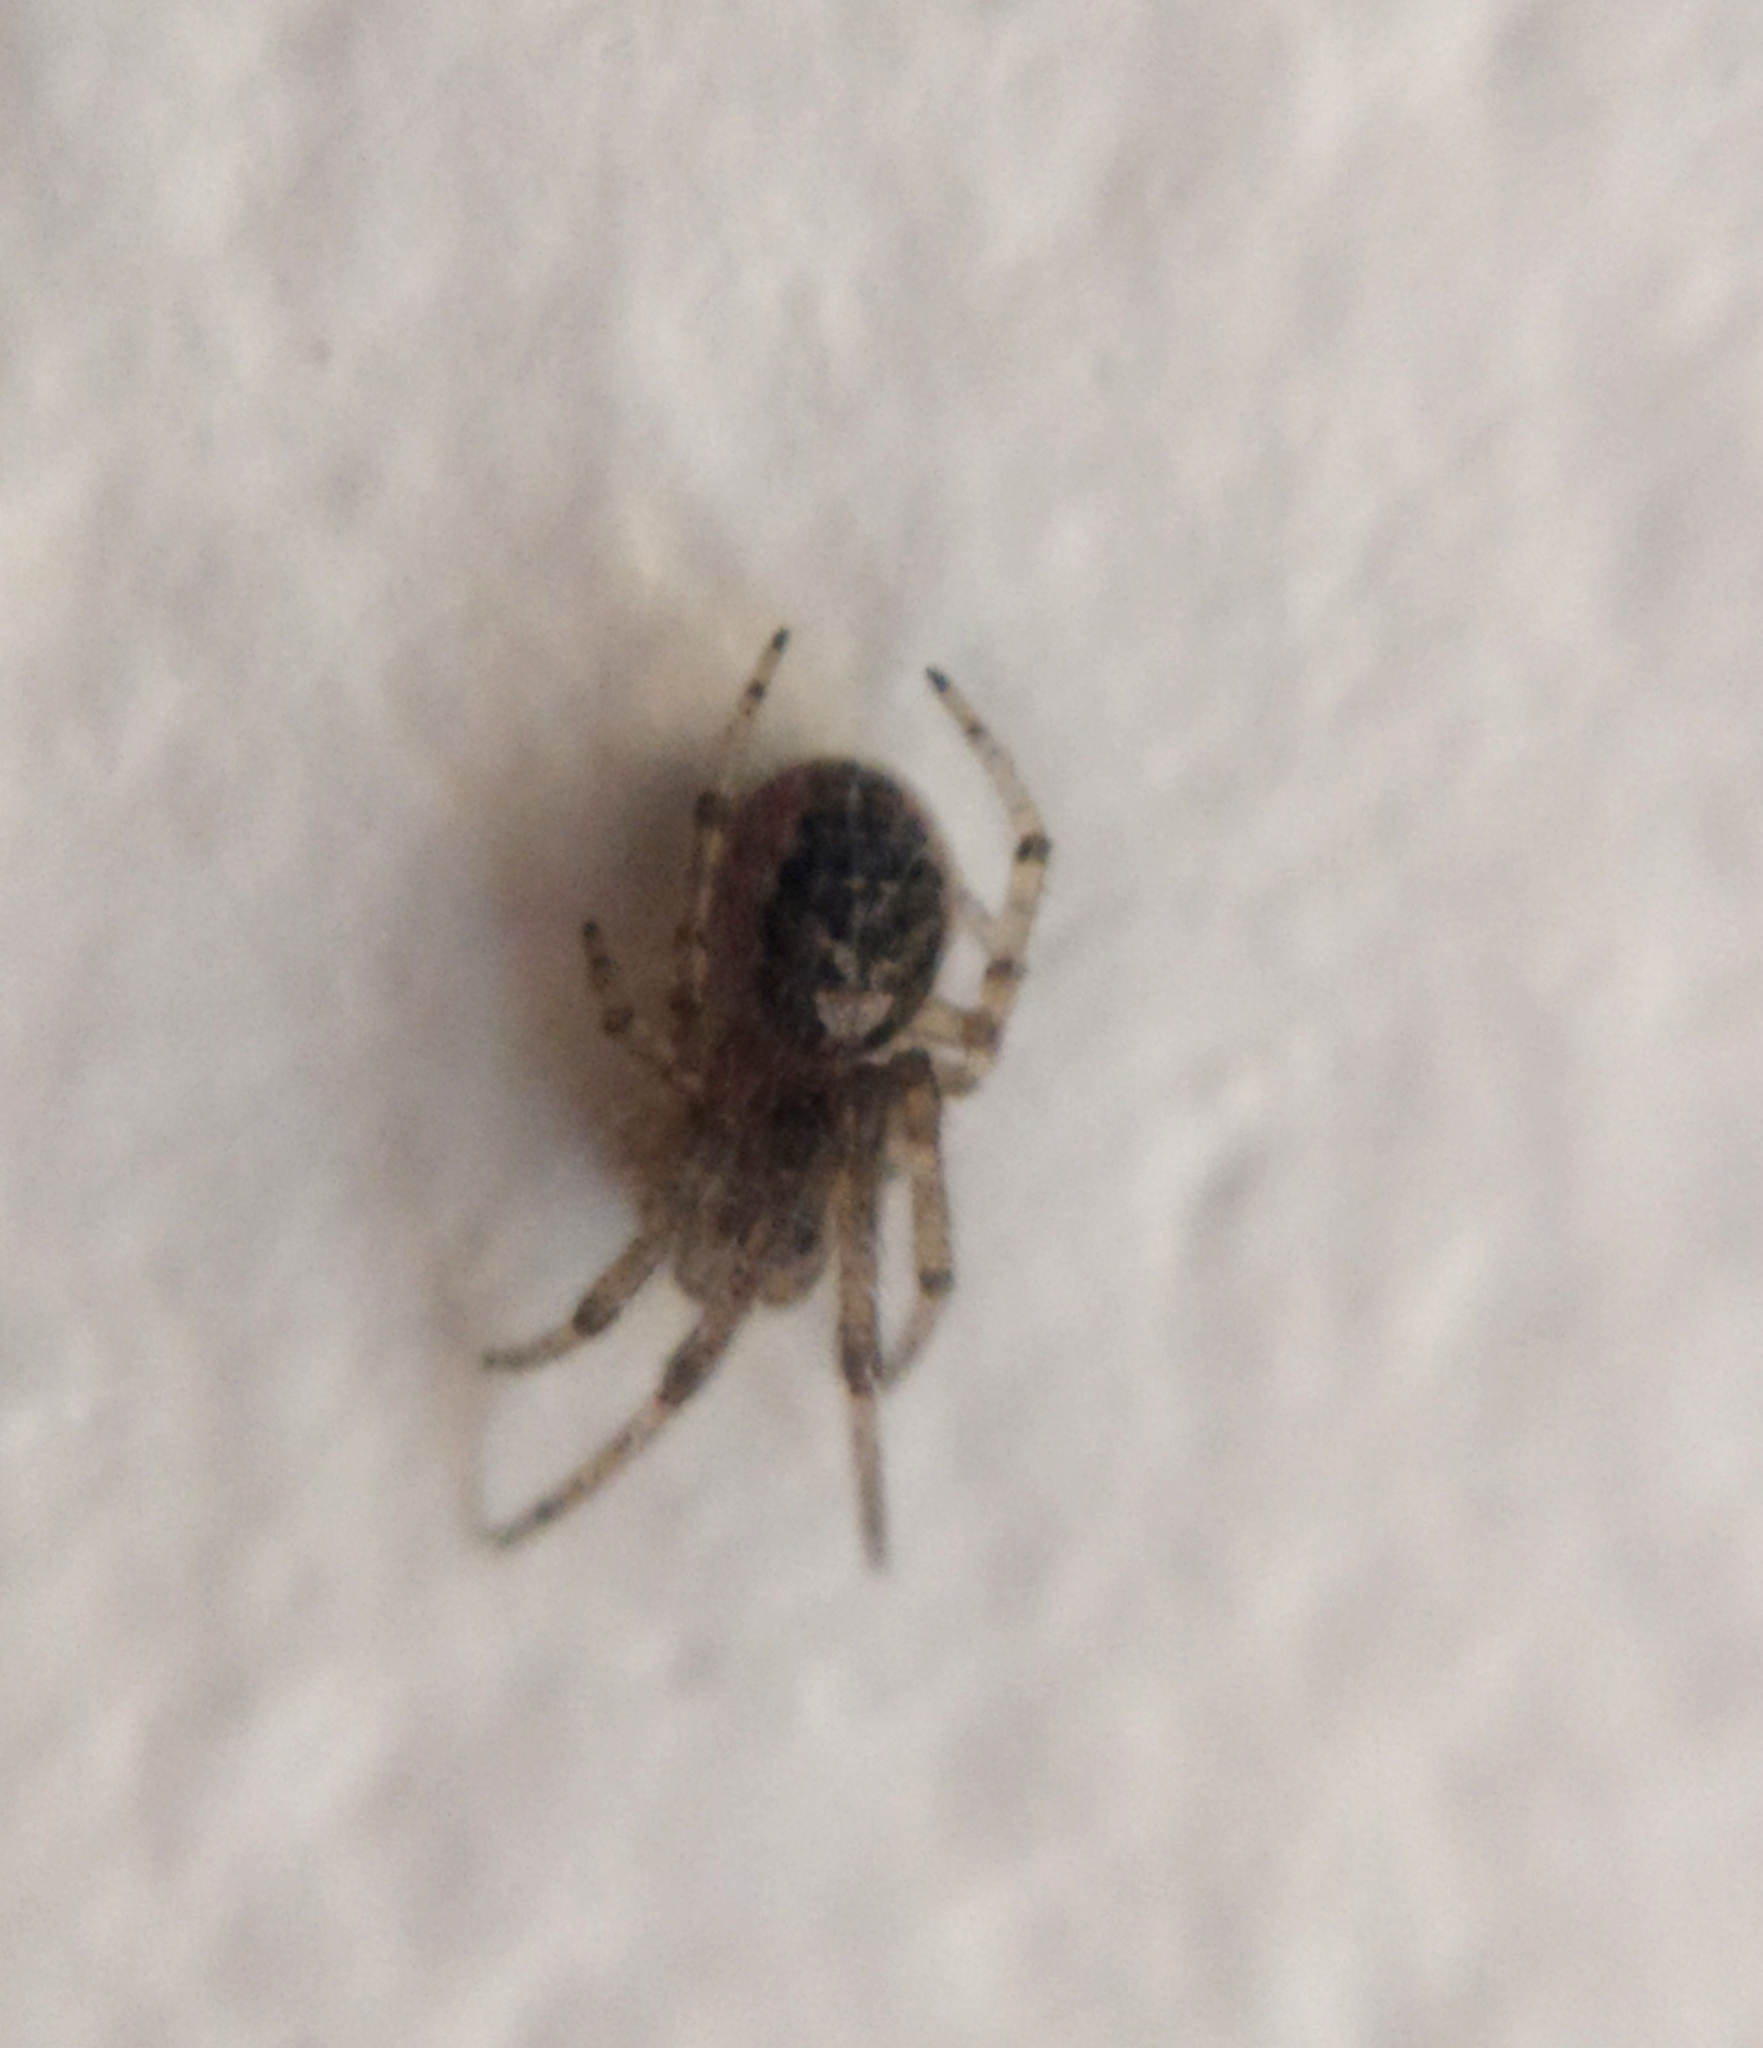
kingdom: Animalia
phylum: Arthropoda
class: Arachnida
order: Araneae
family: Araneidae
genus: Zygiella
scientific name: Zygiella x-notata
